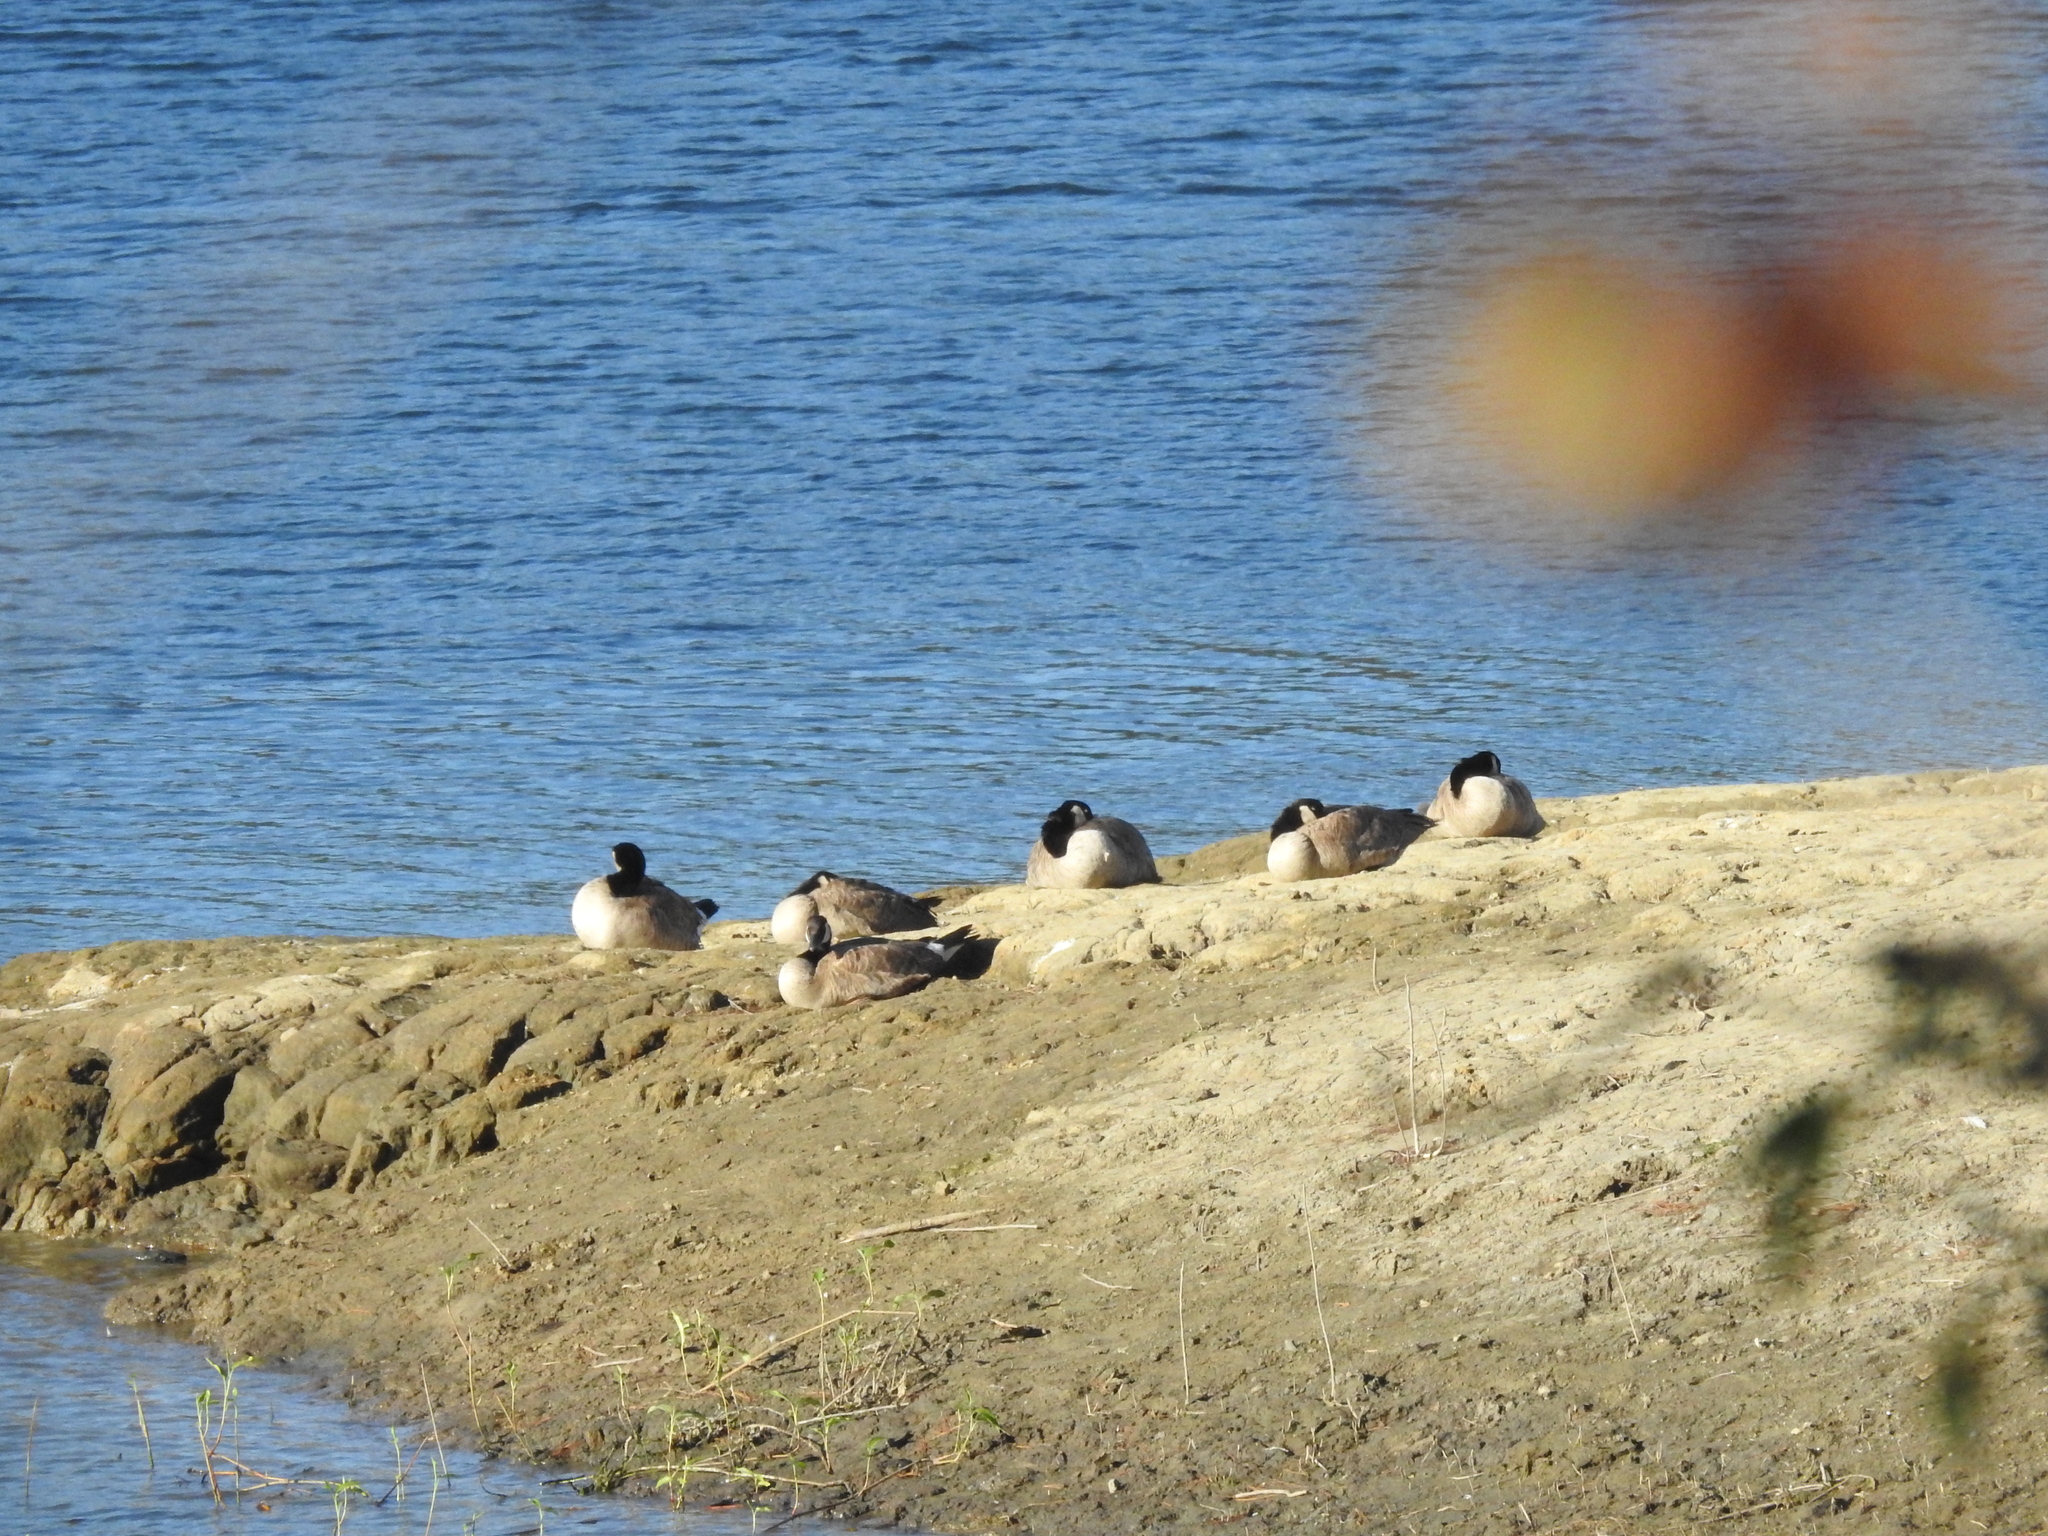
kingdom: Animalia
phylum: Chordata
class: Aves
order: Anseriformes
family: Anatidae
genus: Branta
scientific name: Branta canadensis
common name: Canada goose
